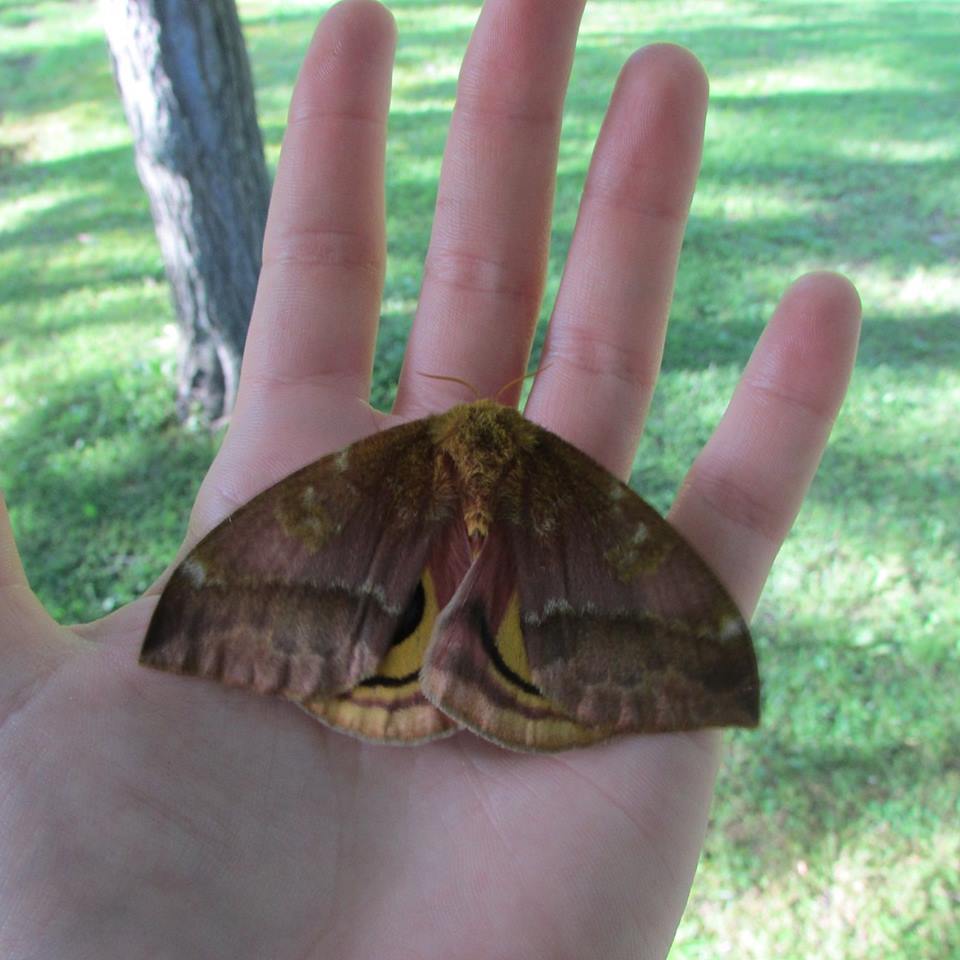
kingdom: Animalia
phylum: Arthropoda
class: Insecta
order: Lepidoptera
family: Saturniidae
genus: Automeris
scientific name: Automeris io
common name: Io moth
